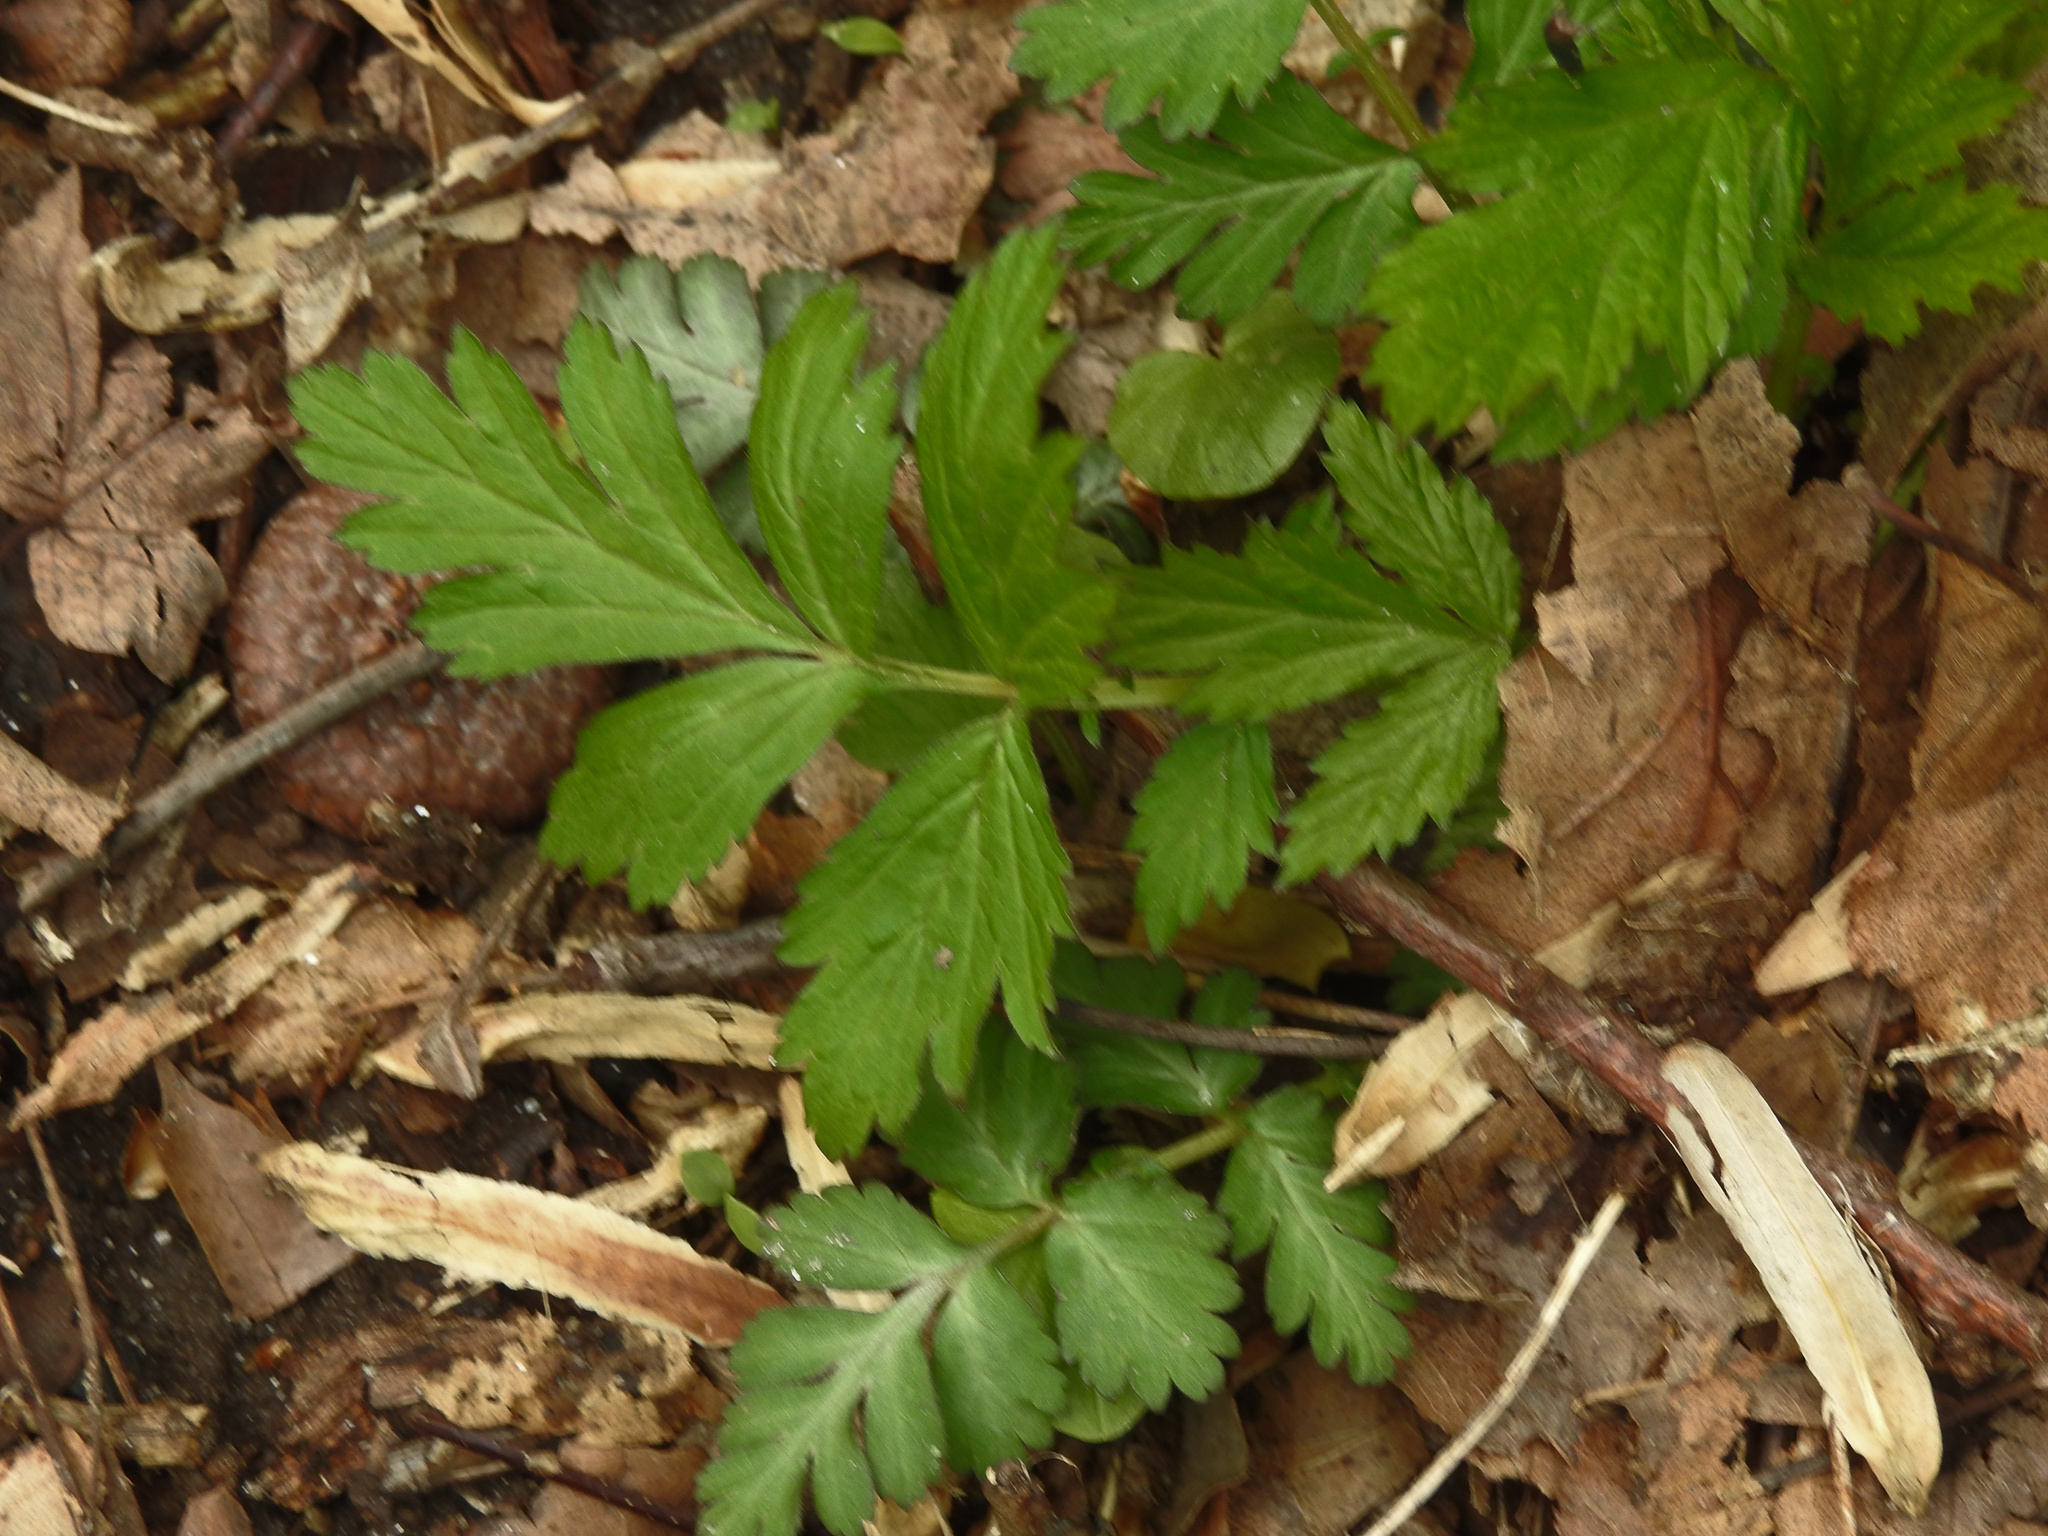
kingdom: Plantae
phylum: Tracheophyta
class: Magnoliopsida
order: Rosales
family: Rosaceae
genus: Geum
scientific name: Geum canadense
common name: White avens
